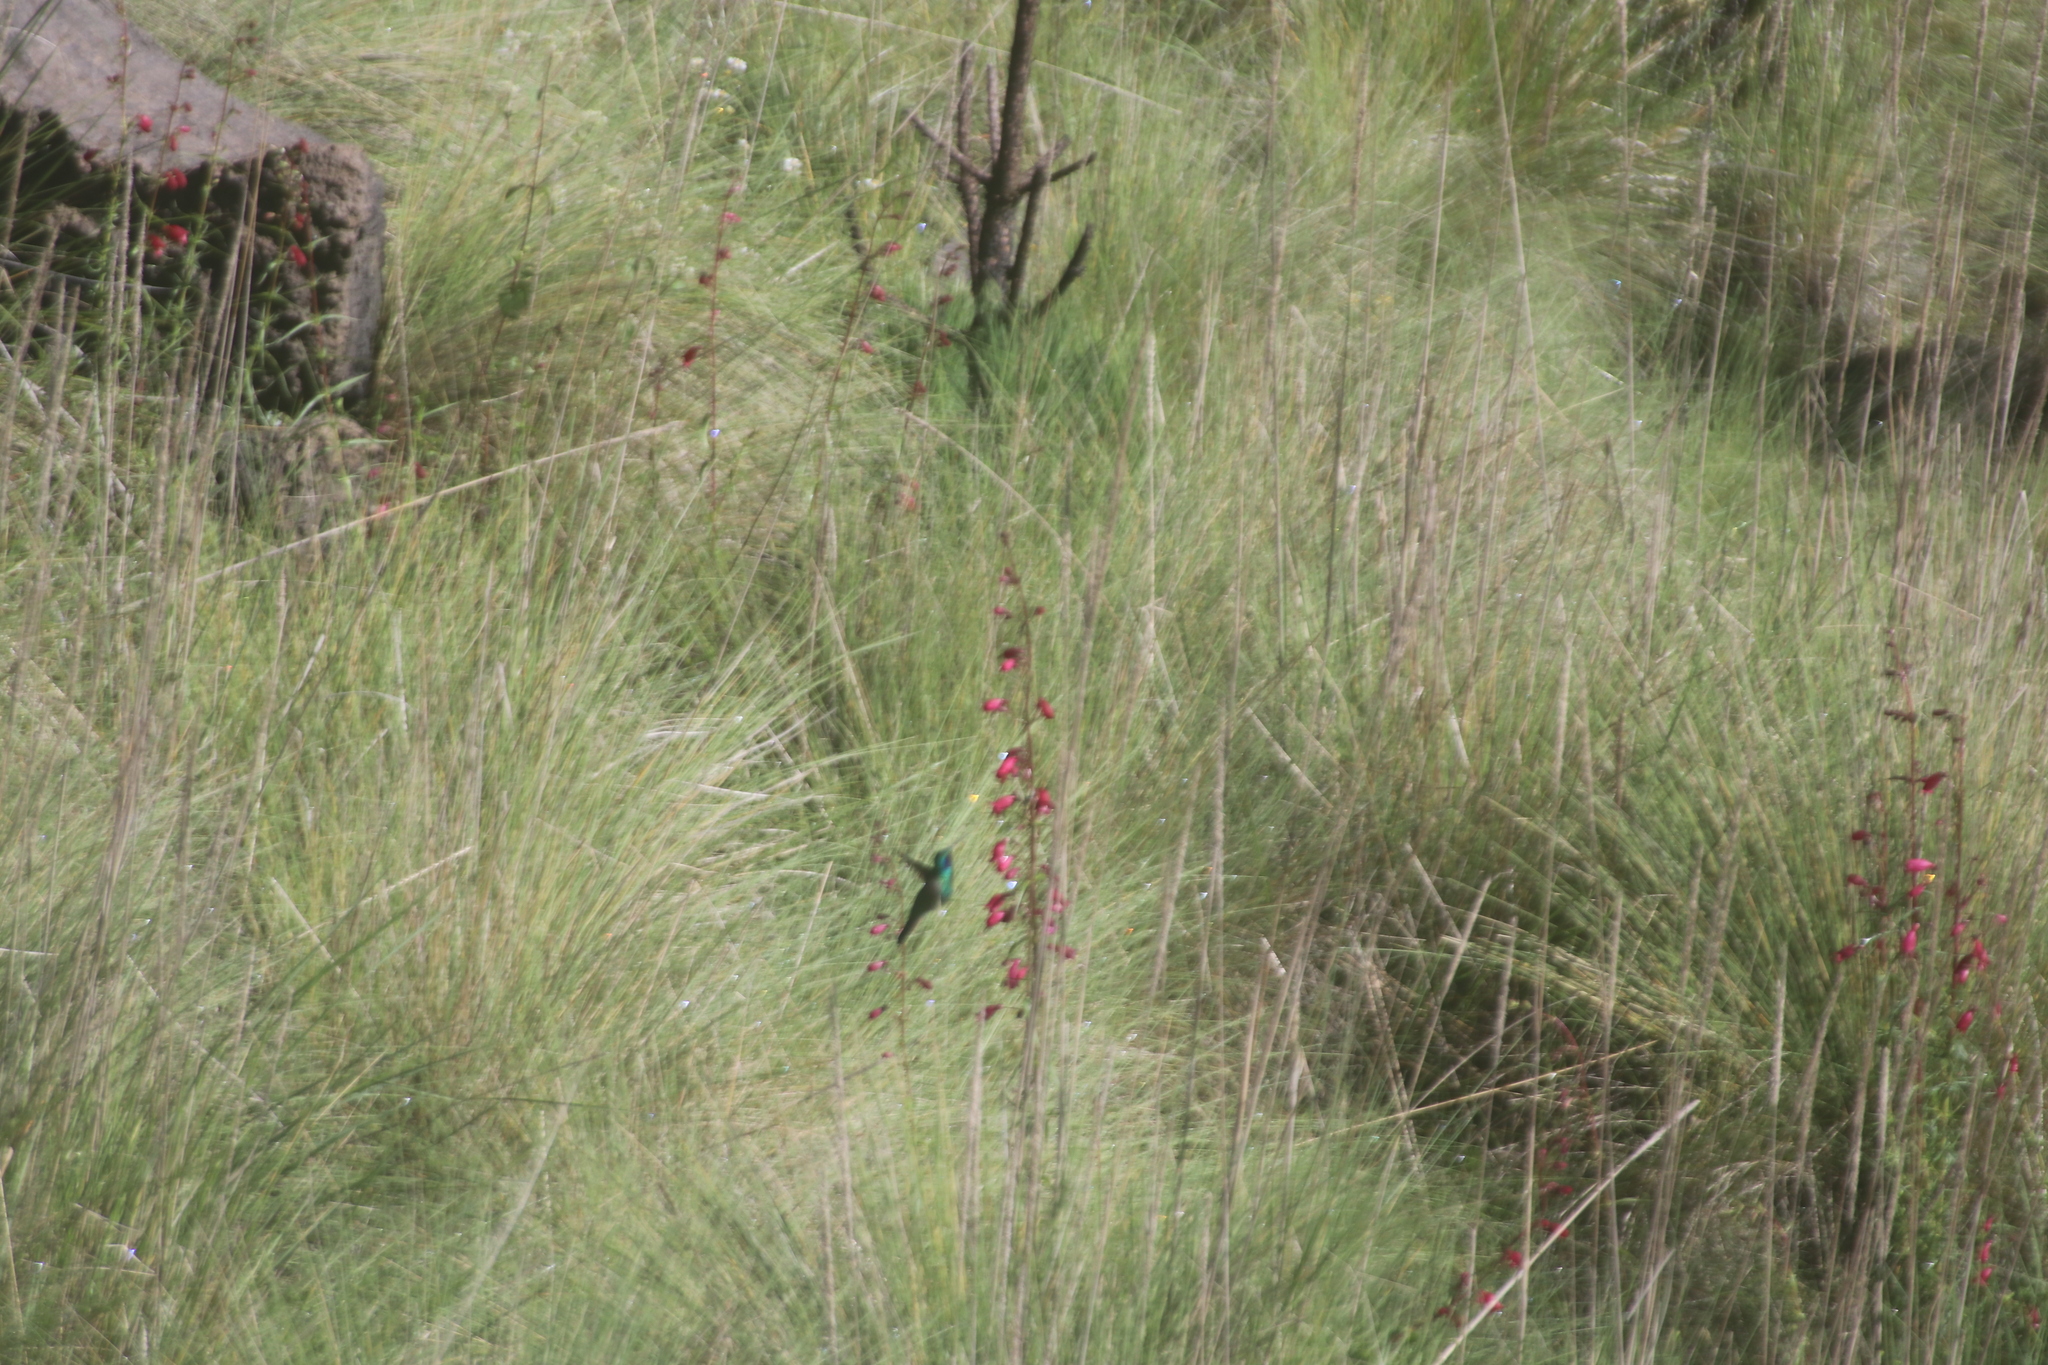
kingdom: Animalia
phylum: Chordata
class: Aves
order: Apodiformes
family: Trochilidae
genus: Colibri
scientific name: Colibri thalassinus
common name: Green violetear
